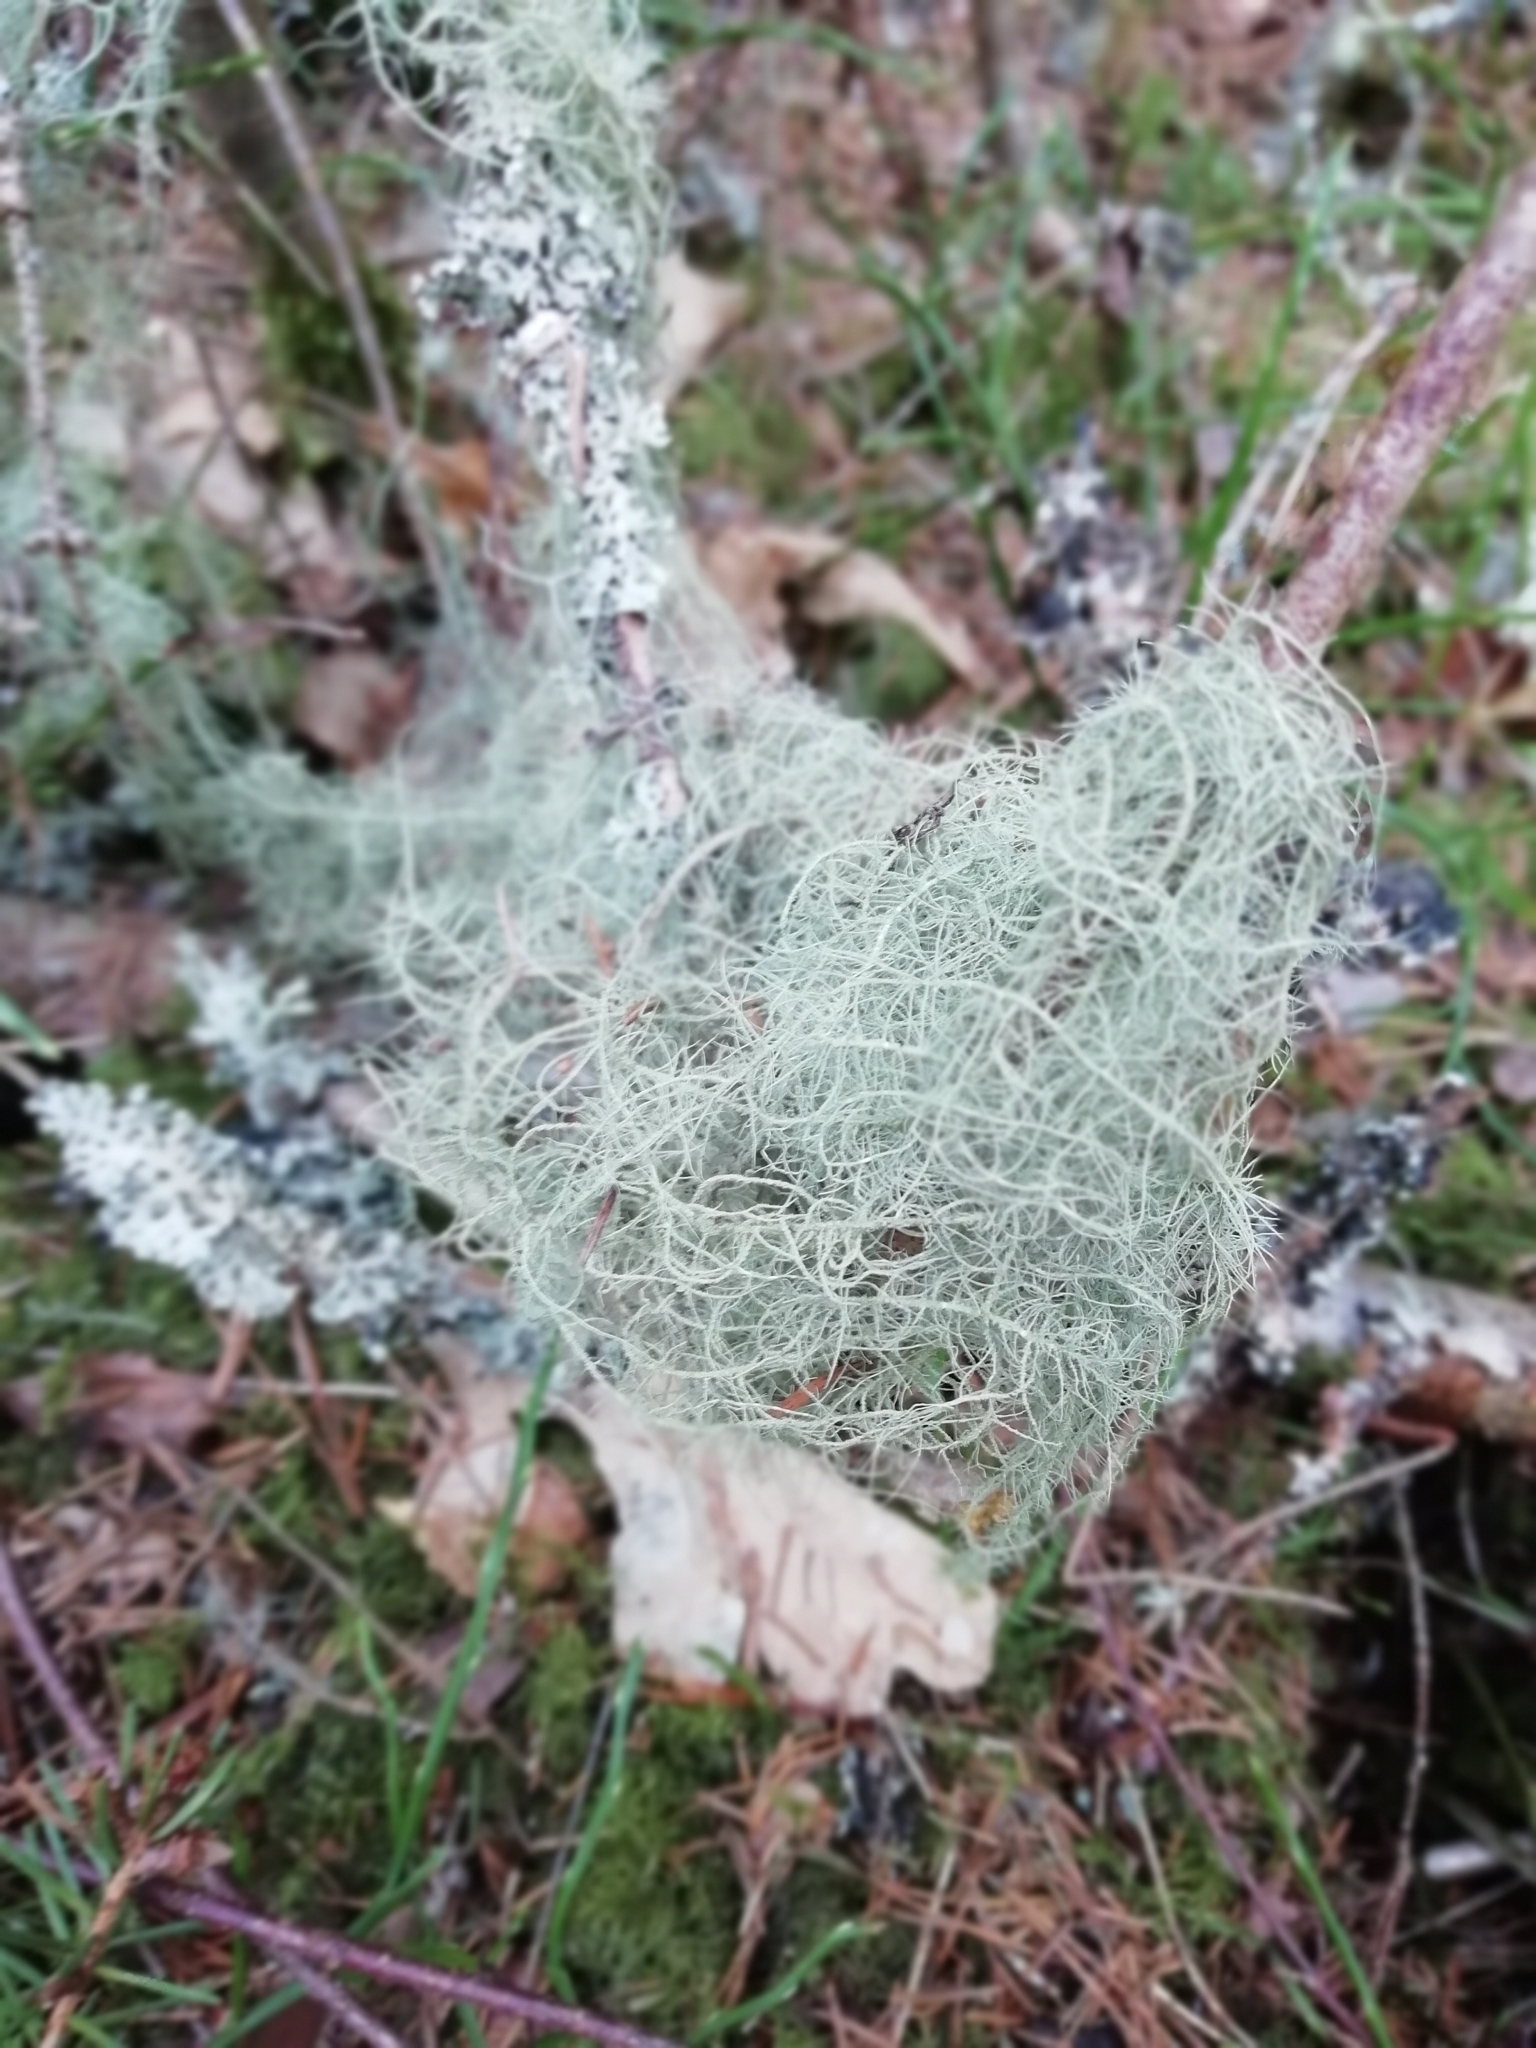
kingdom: Fungi
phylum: Ascomycota
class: Lecanoromycetes
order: Lecanorales
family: Parmeliaceae
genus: Usnea
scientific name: Usnea dasopoga
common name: Fishbone beard lichen
